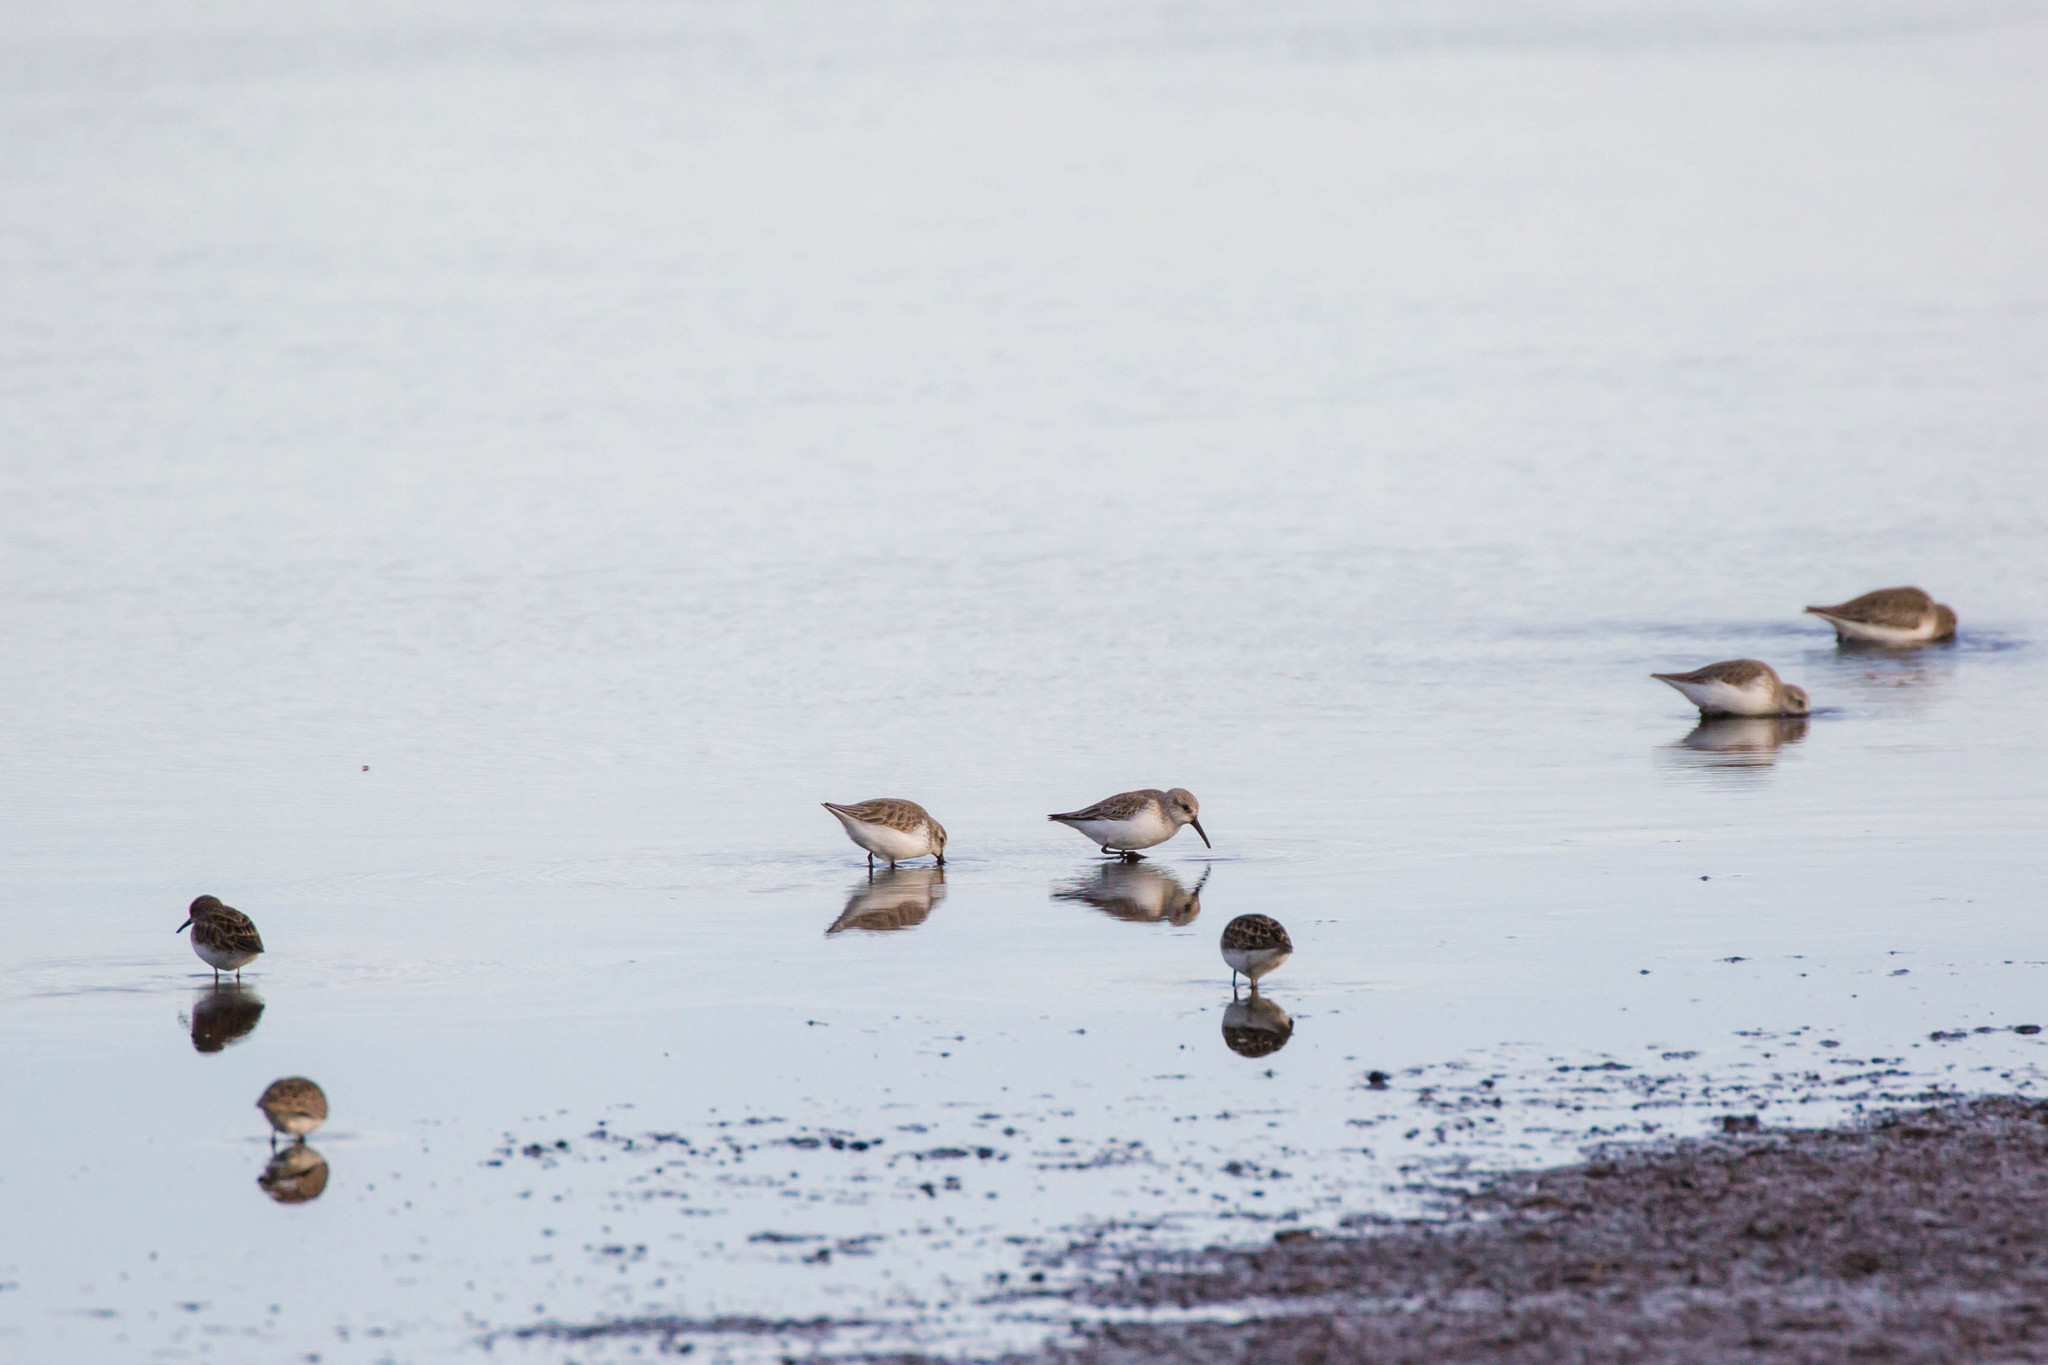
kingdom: Animalia
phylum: Chordata
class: Aves
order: Charadriiformes
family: Scolopacidae
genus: Calidris
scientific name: Calidris minutilla
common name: Least sandpiper
